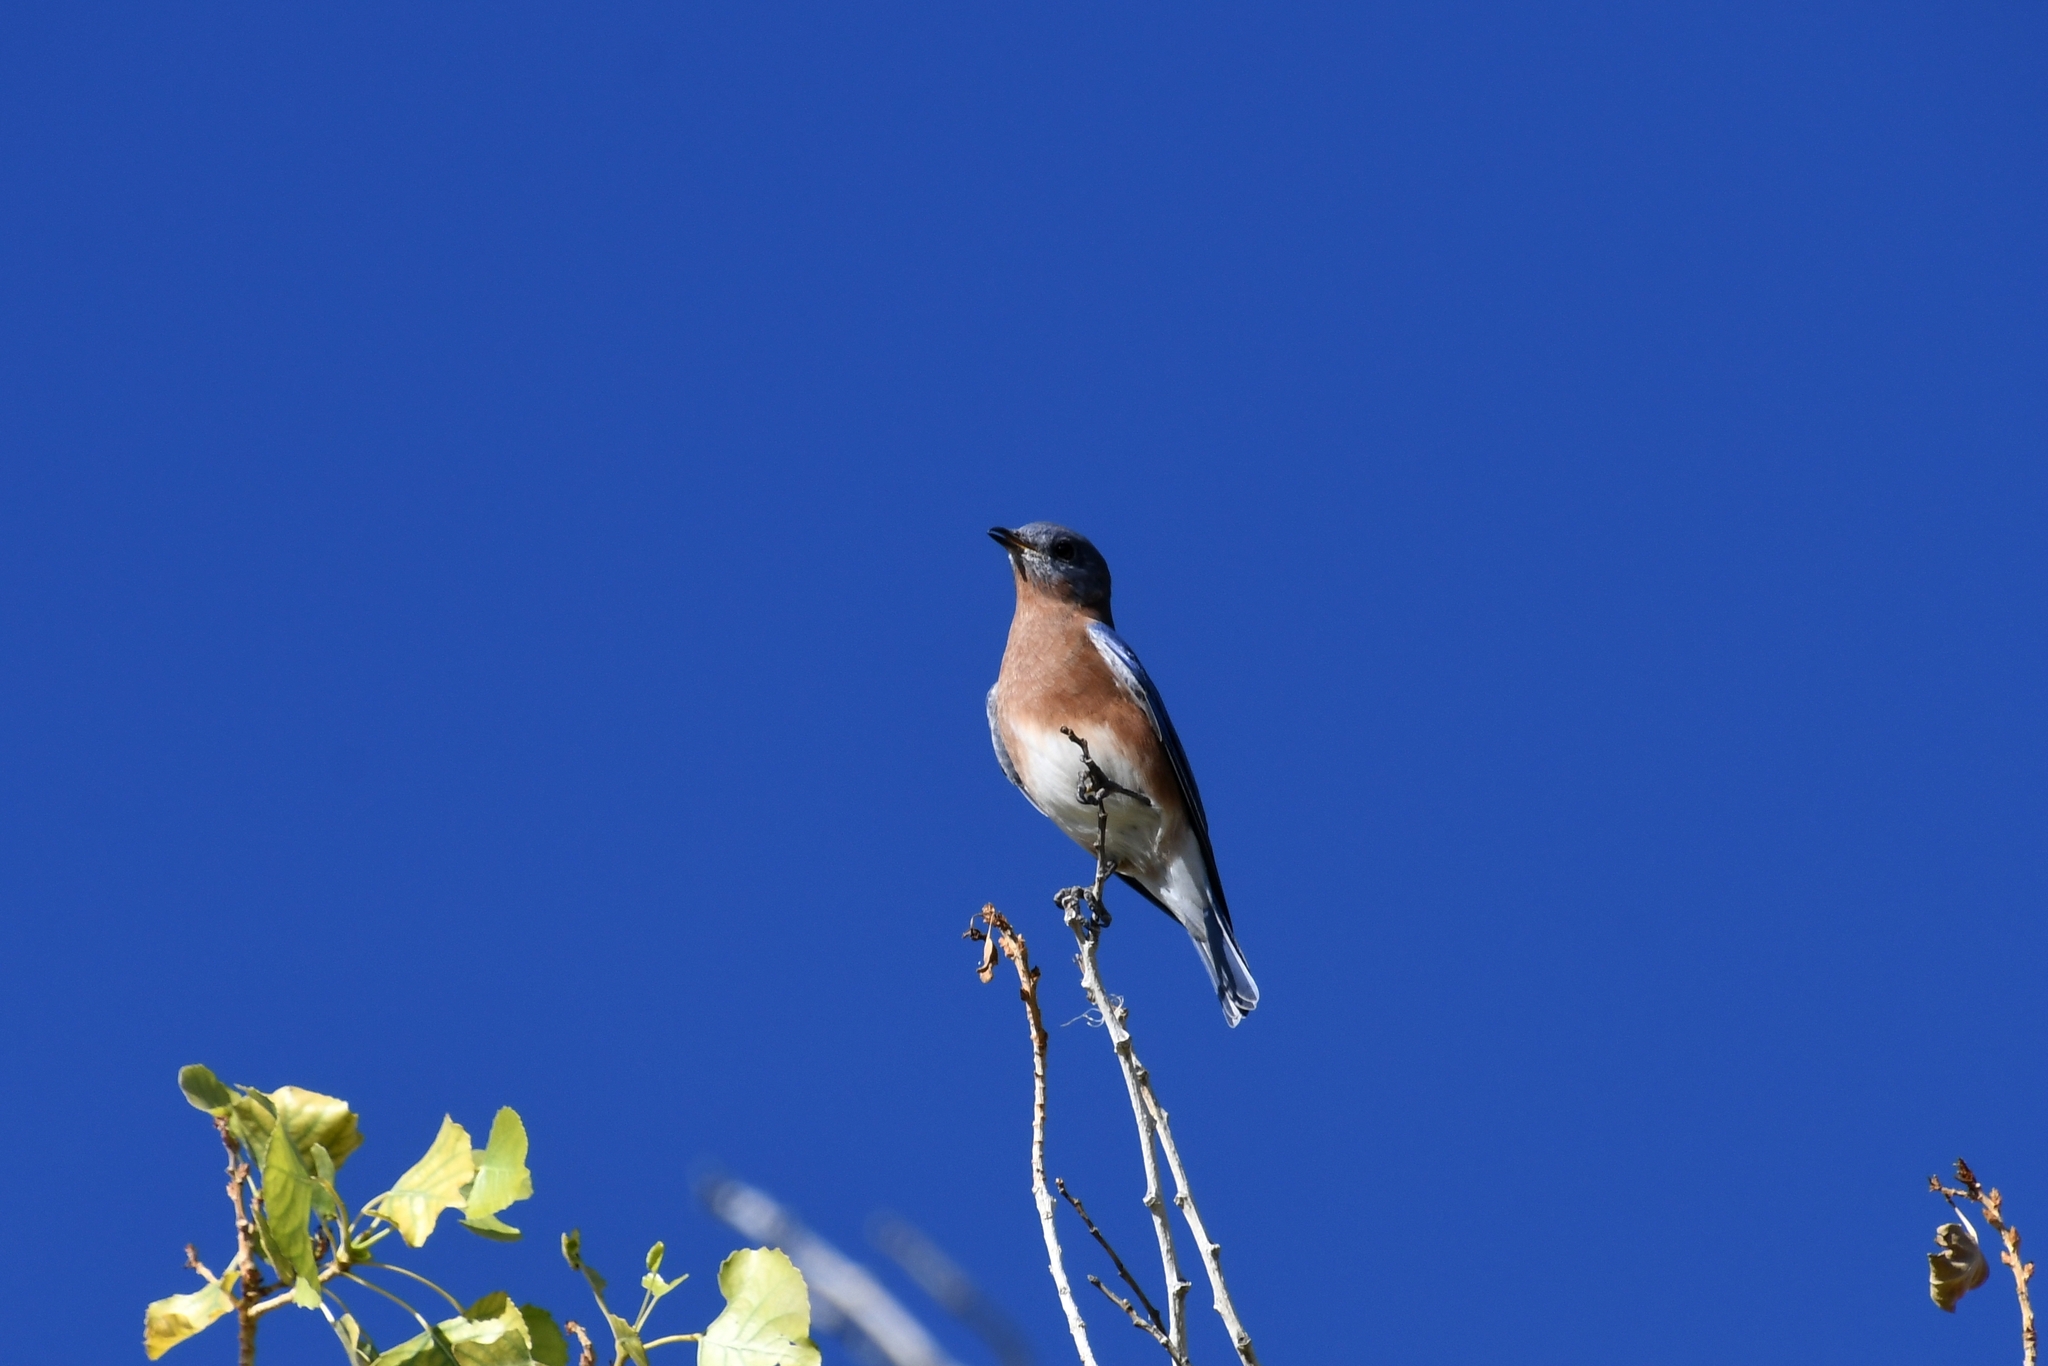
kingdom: Animalia
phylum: Chordata
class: Aves
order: Passeriformes
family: Turdidae
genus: Sialia
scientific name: Sialia sialis
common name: Eastern bluebird
